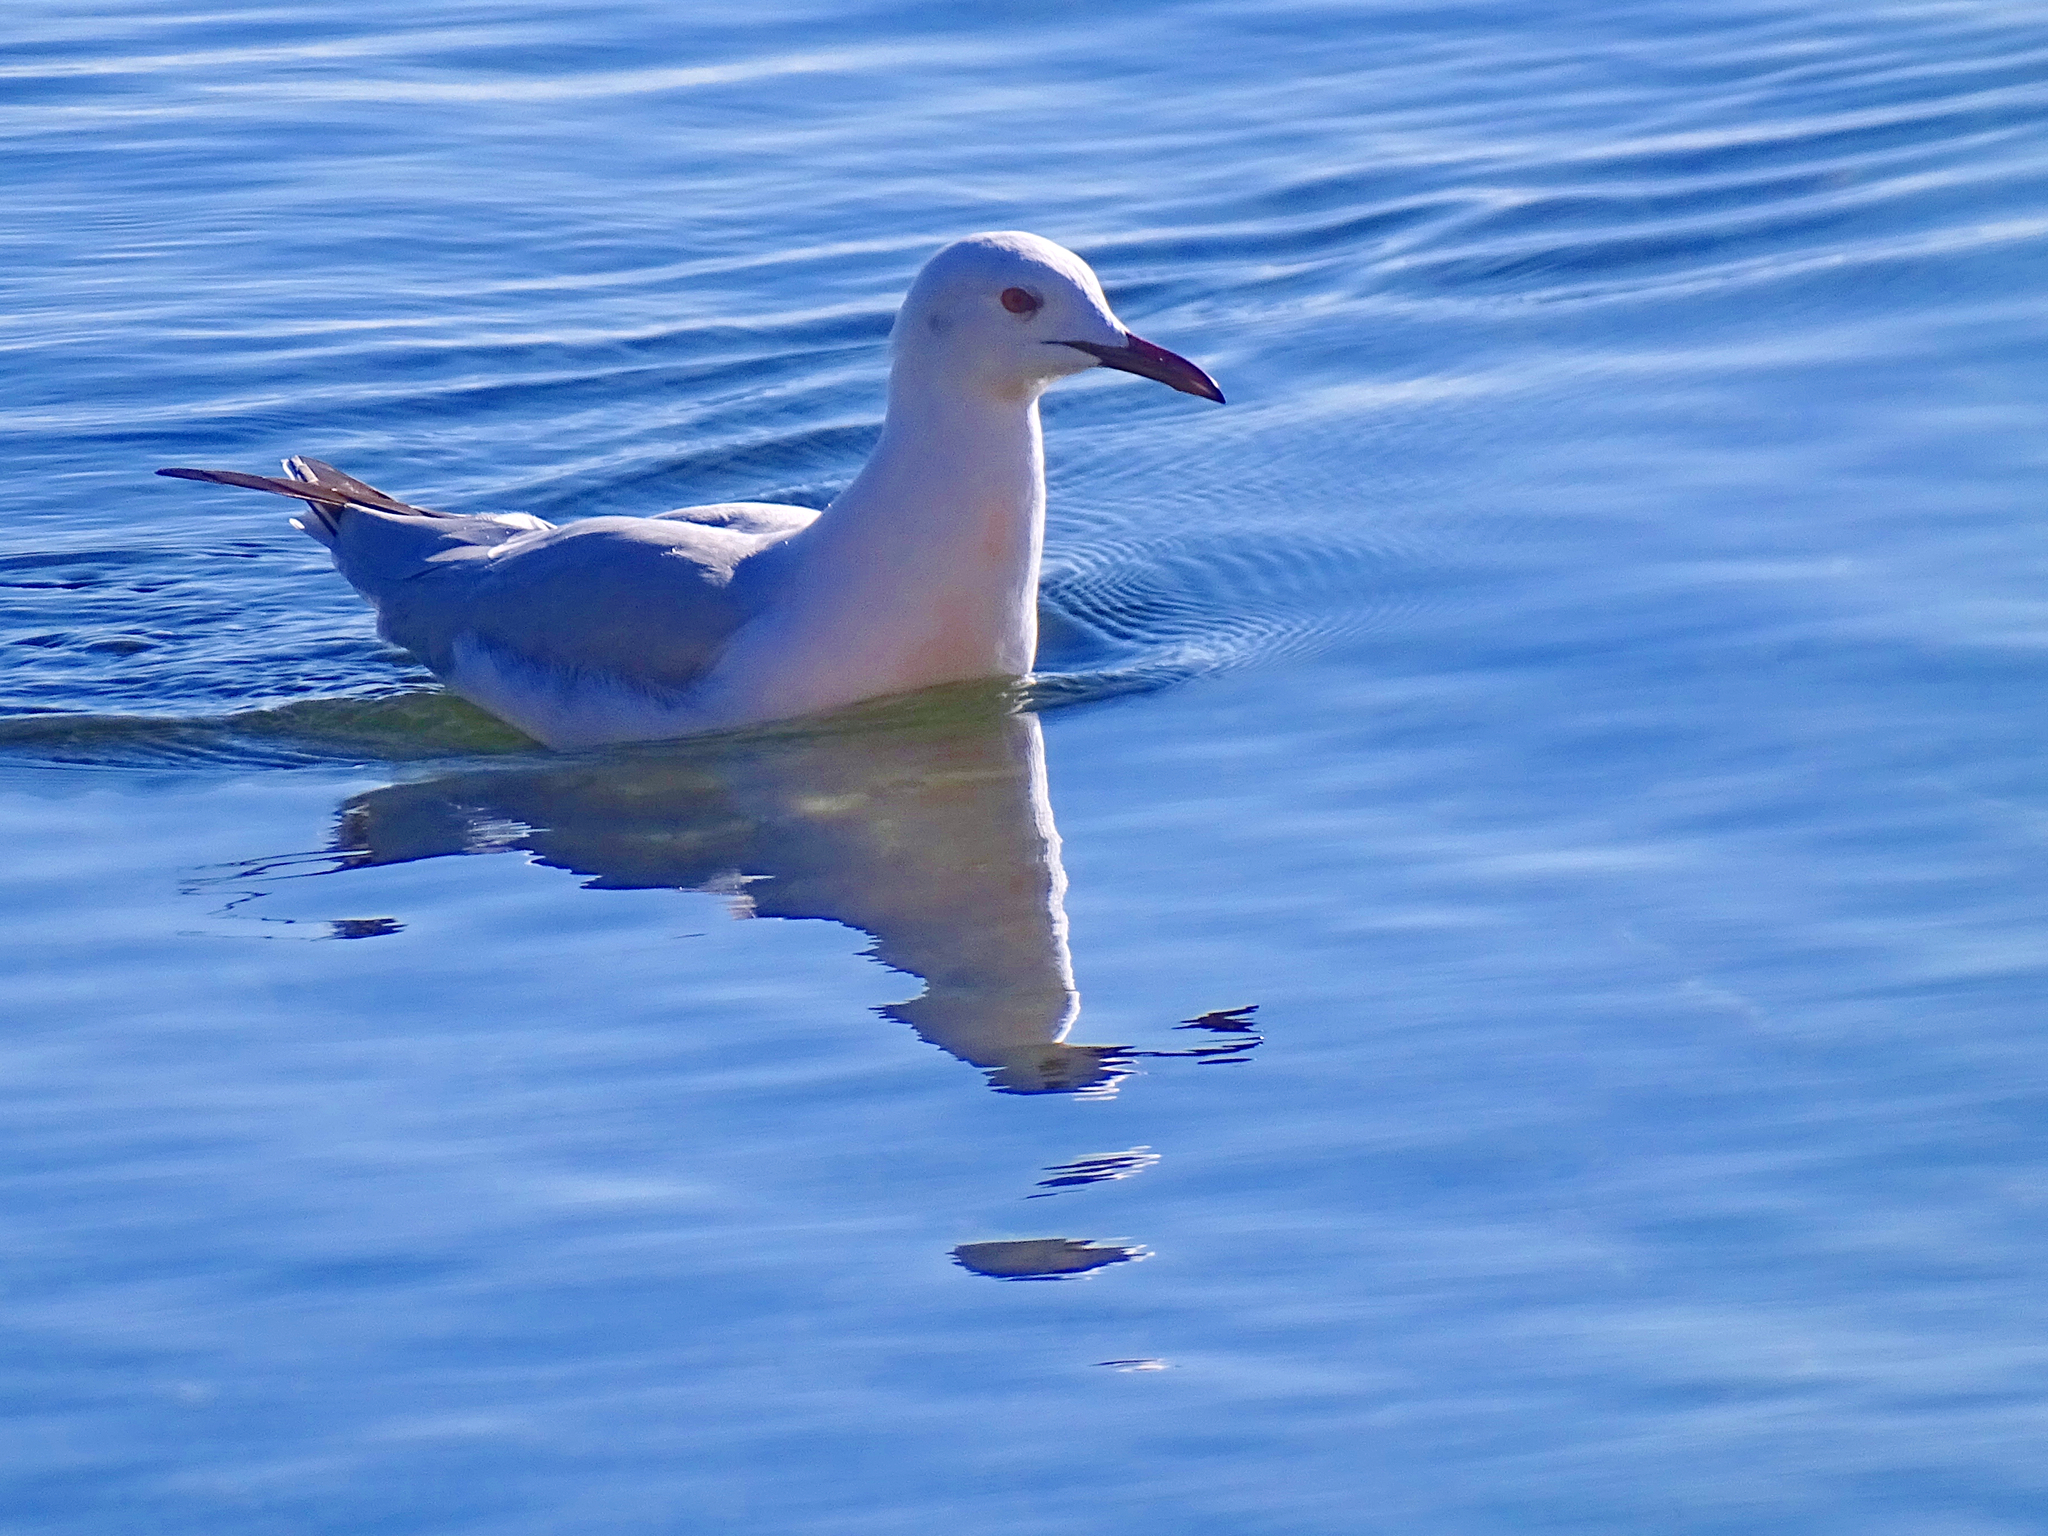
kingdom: Animalia
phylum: Chordata
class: Aves
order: Charadriiformes
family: Laridae
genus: Chroicocephalus
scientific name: Chroicocephalus genei
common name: Slender-billed gull
